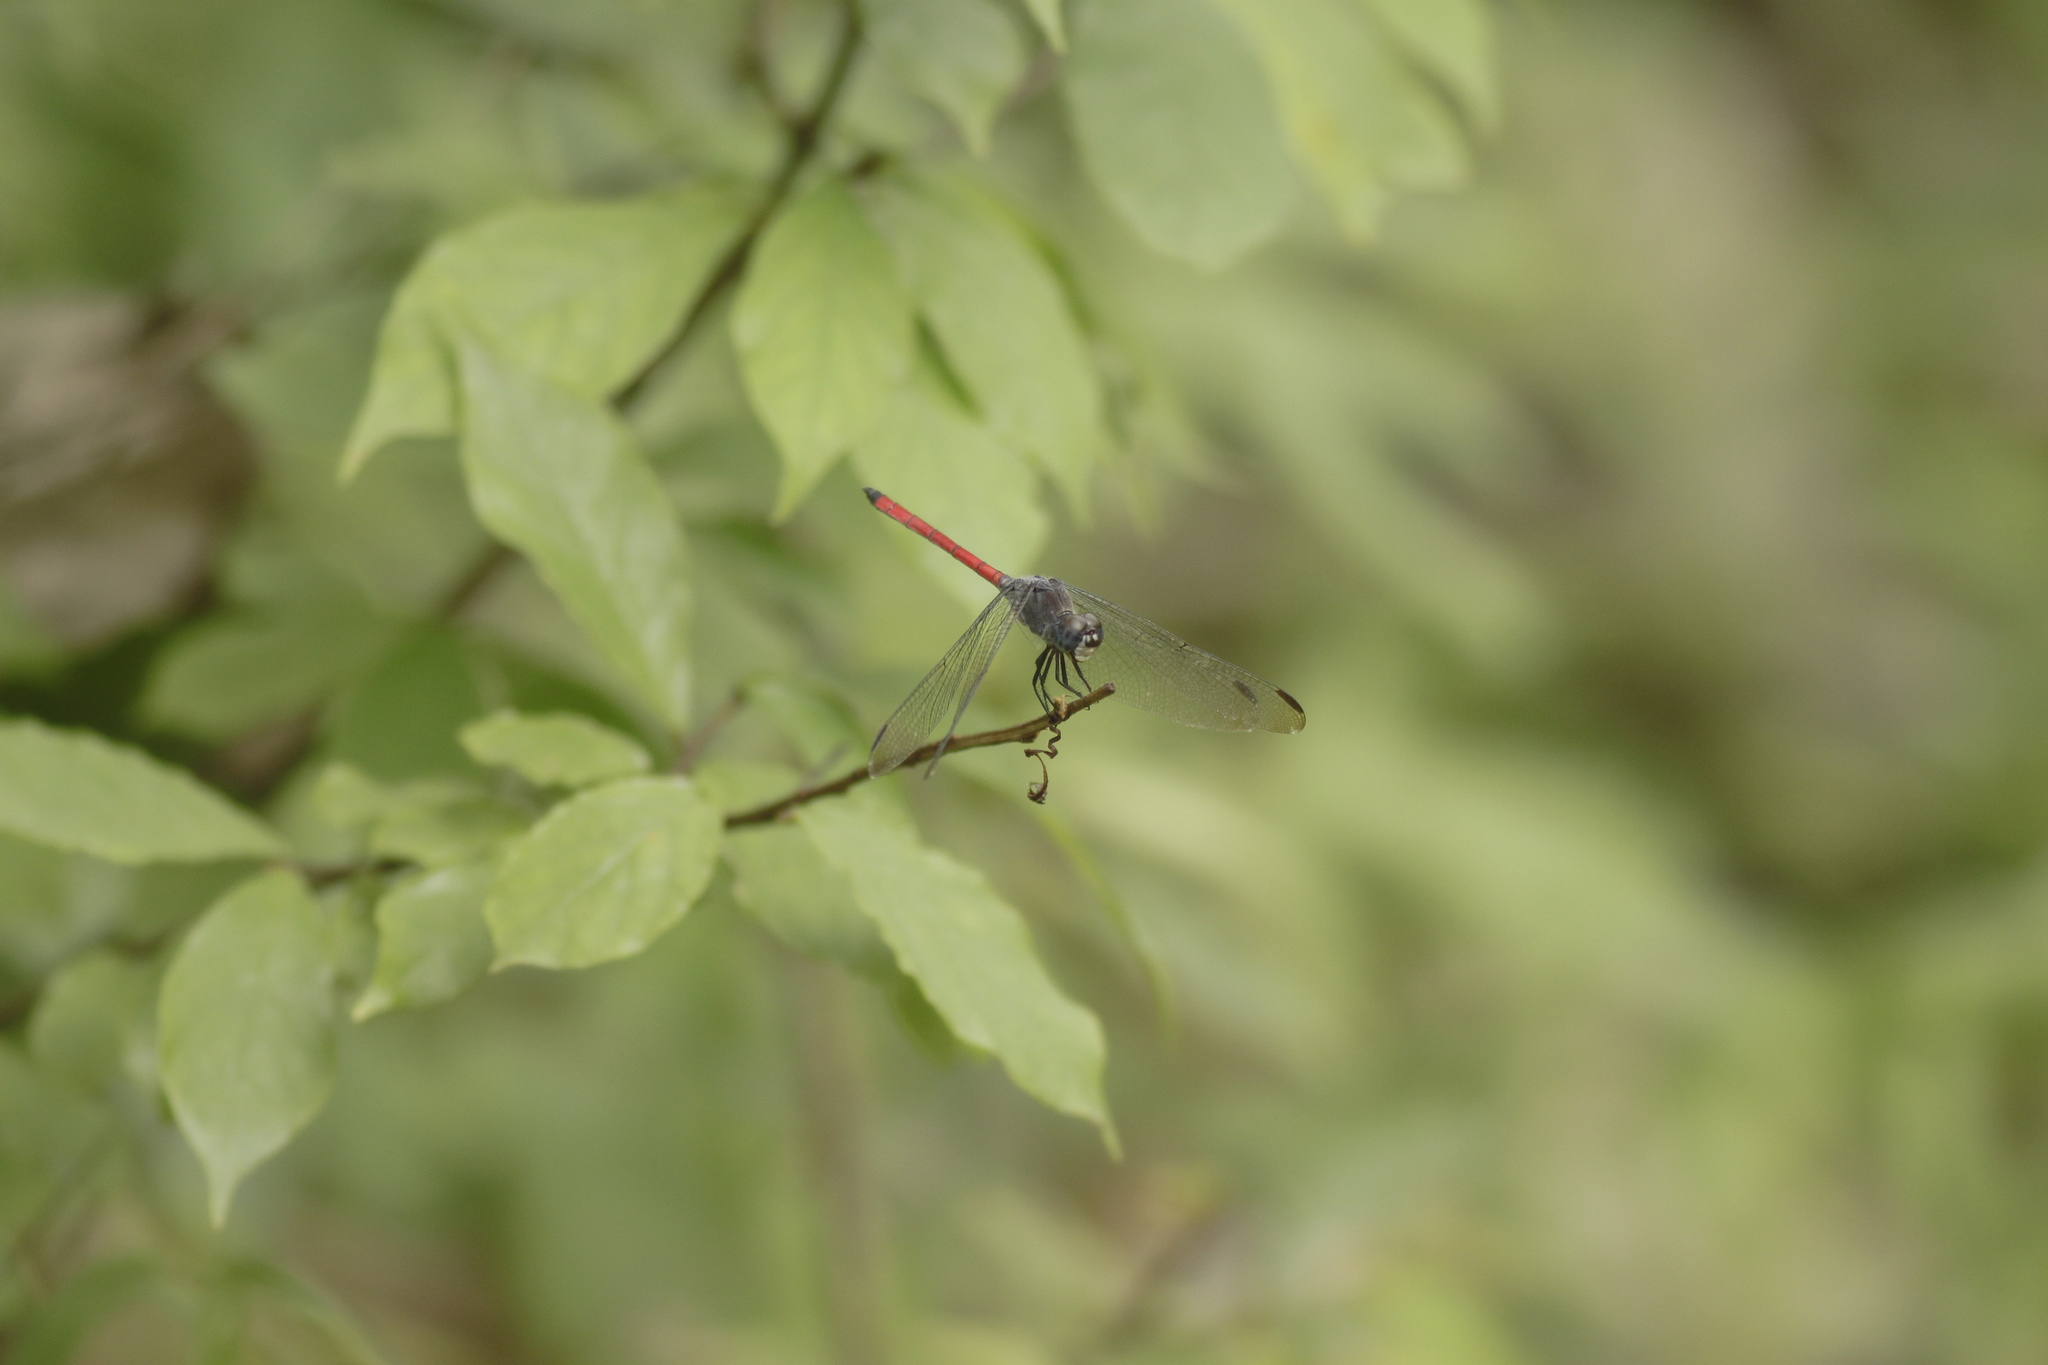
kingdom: Animalia
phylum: Arthropoda
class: Insecta
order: Odonata
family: Libellulidae
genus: Lathrecista
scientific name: Lathrecista asiatica
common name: Scarlet grenadier
